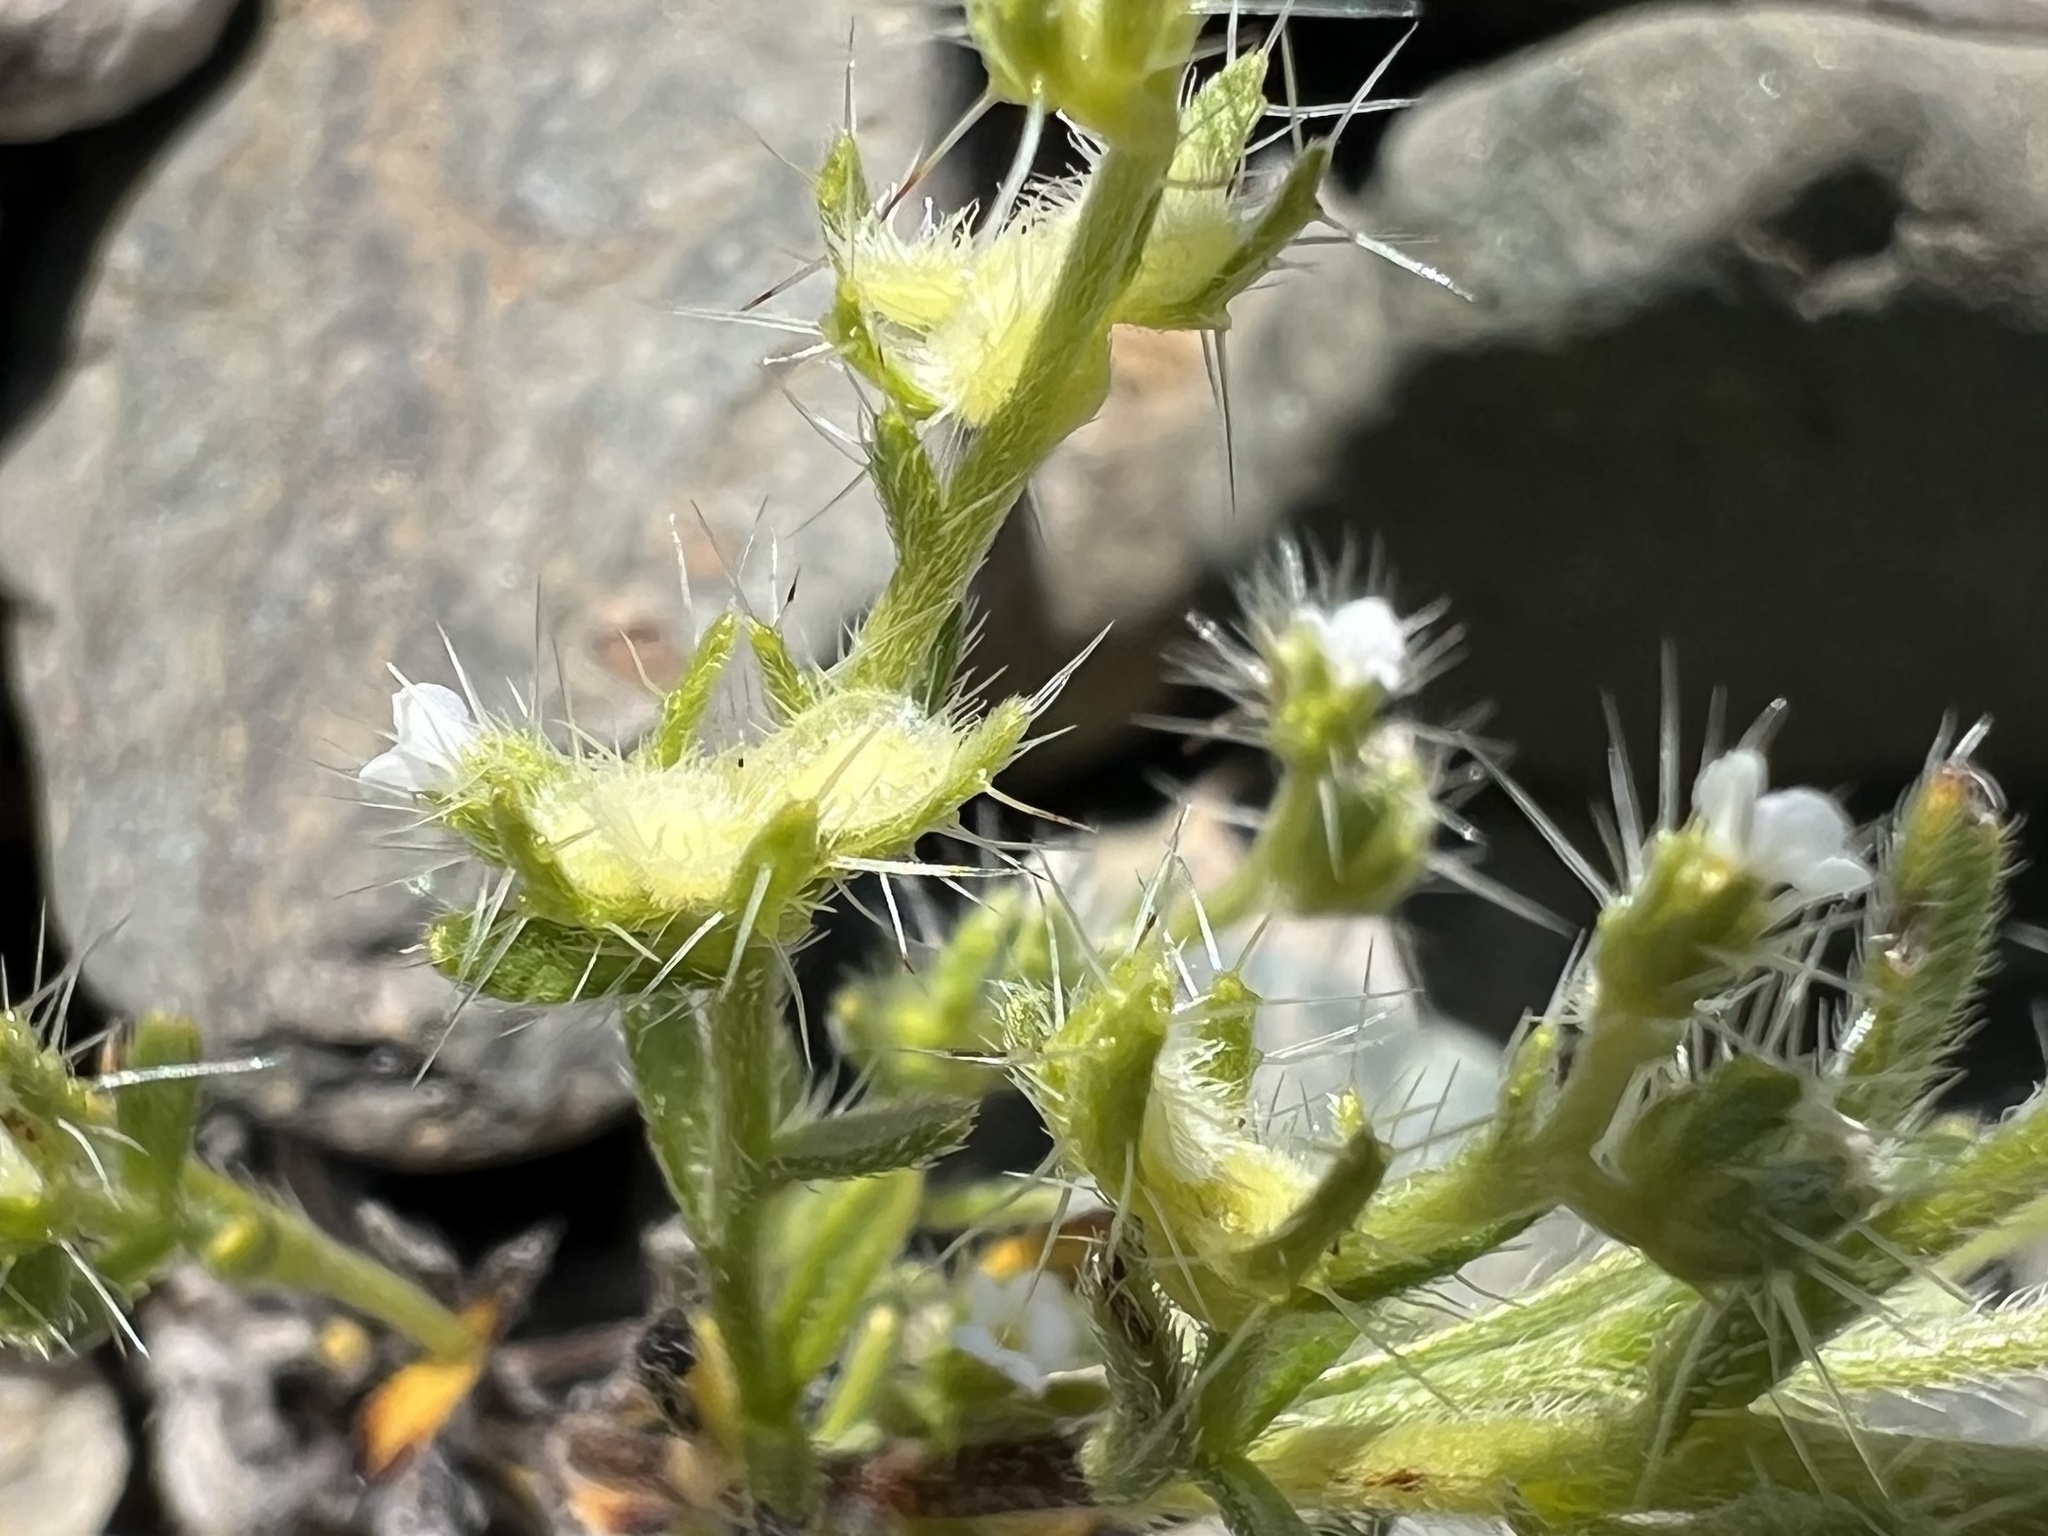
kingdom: Plantae
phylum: Tracheophyta
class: Magnoliopsida
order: Boraginales
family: Boraginaceae
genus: Pectocarya
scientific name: Pectocarya setosa
